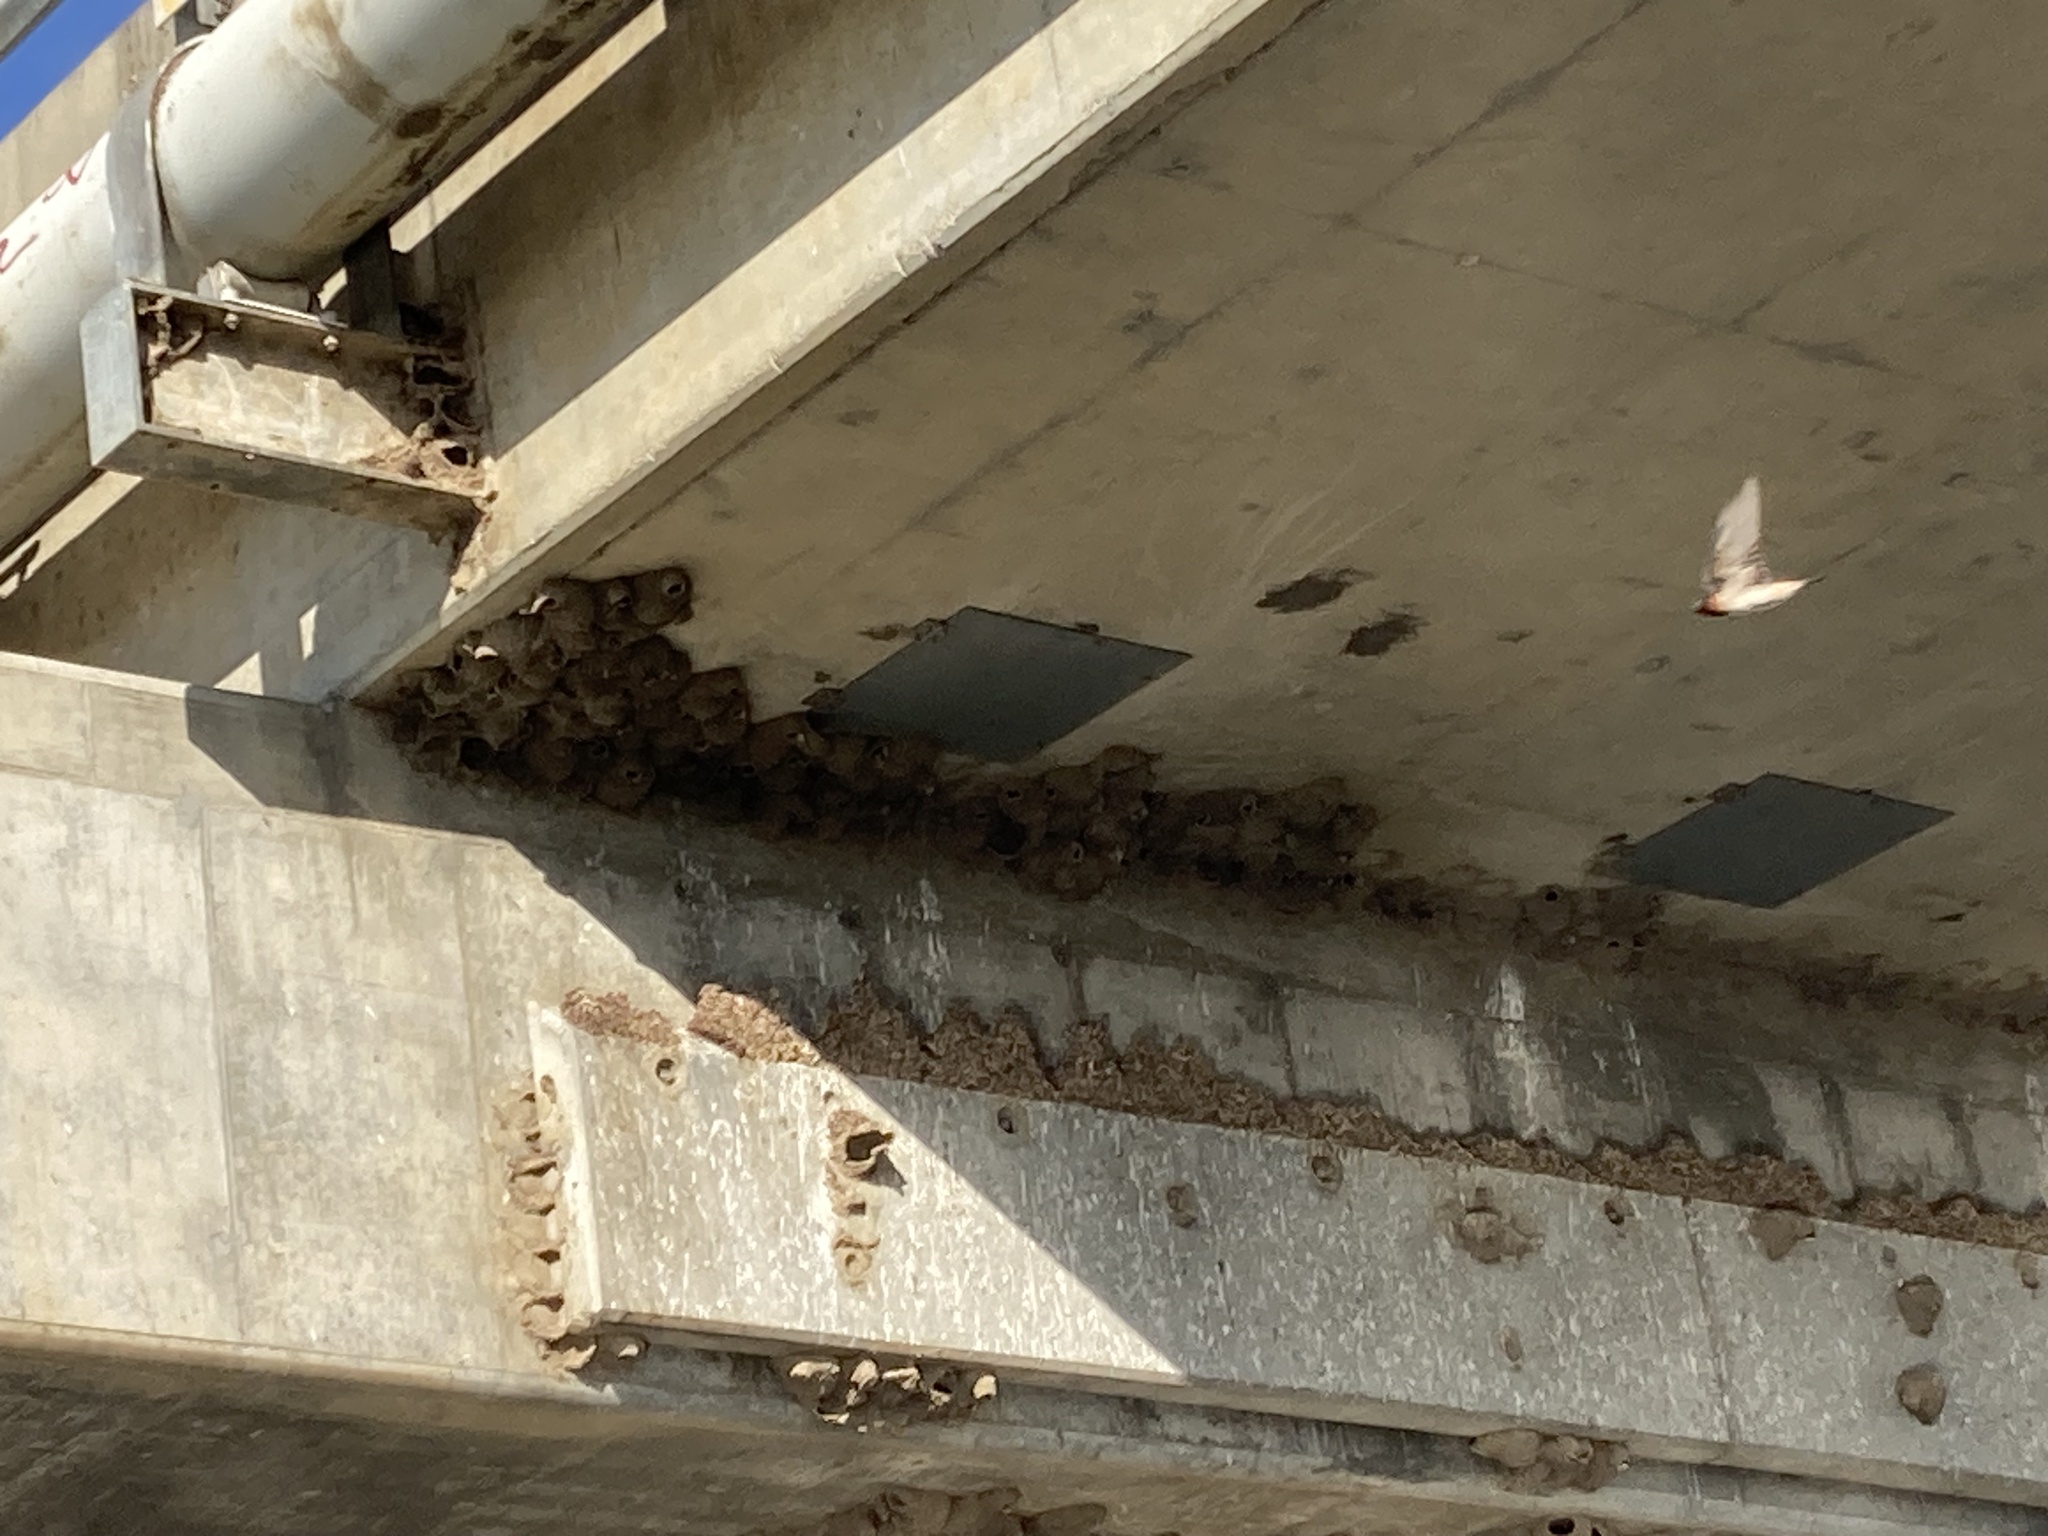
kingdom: Animalia
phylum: Chordata
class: Aves
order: Passeriformes
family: Hirundinidae
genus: Petrochelidon
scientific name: Petrochelidon pyrrhonota
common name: American cliff swallow
